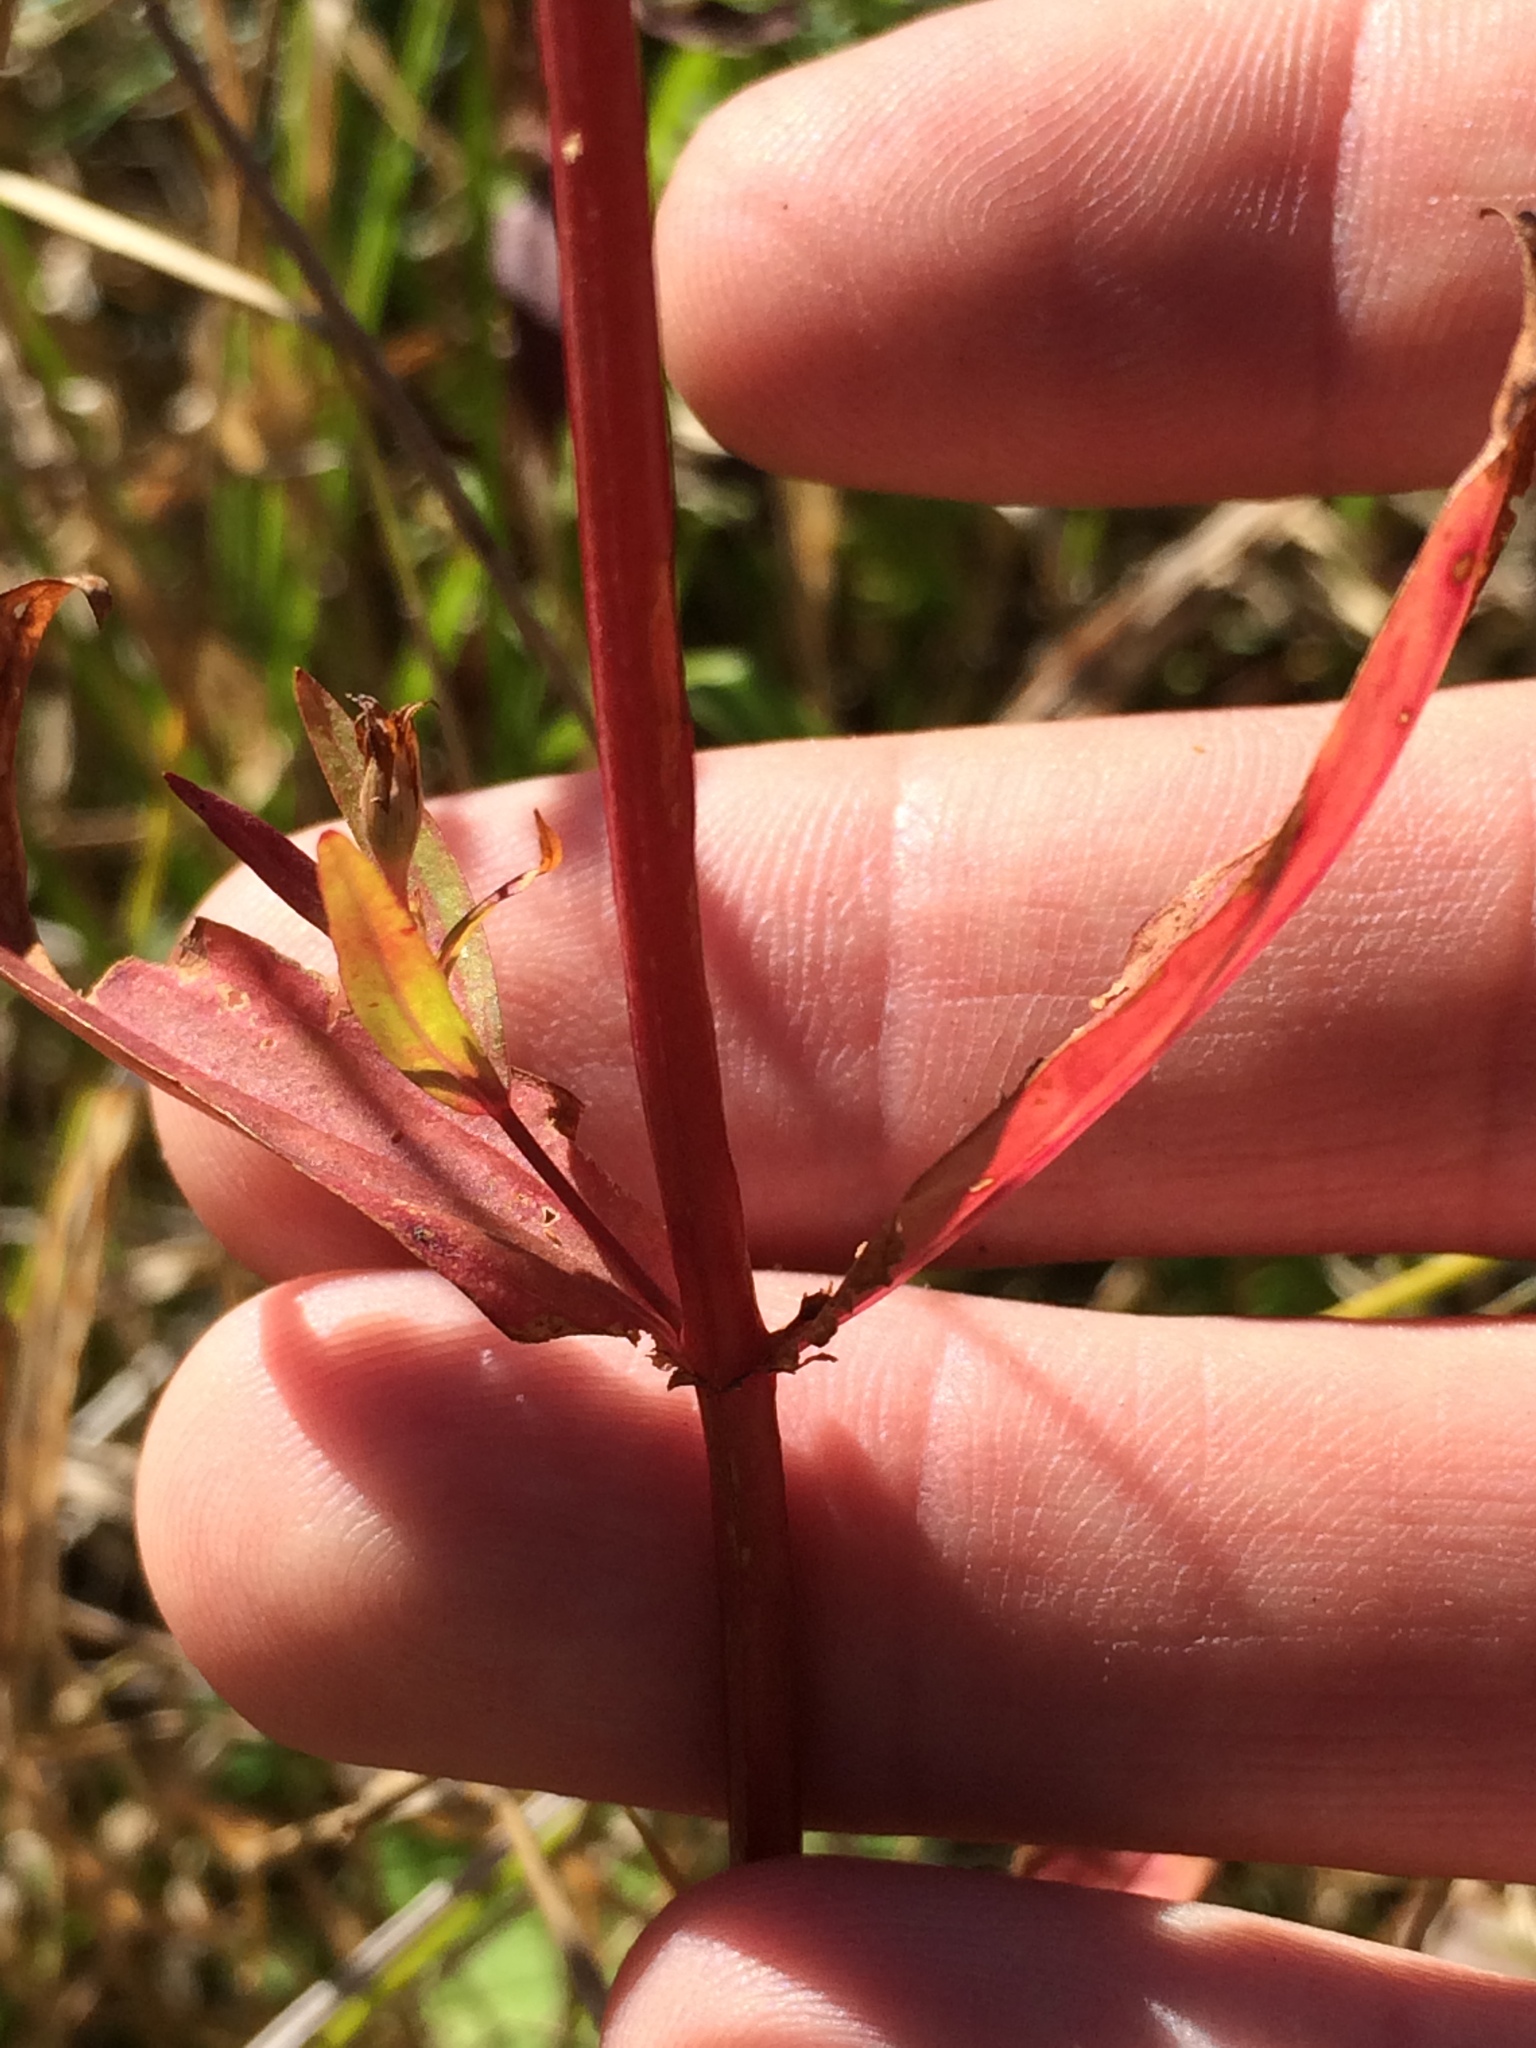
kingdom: Plantae
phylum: Tracheophyta
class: Magnoliopsida
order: Malpighiales
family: Hypericaceae
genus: Hypericum
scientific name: Hypericum majus
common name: Greater canadian st. john's-wort
